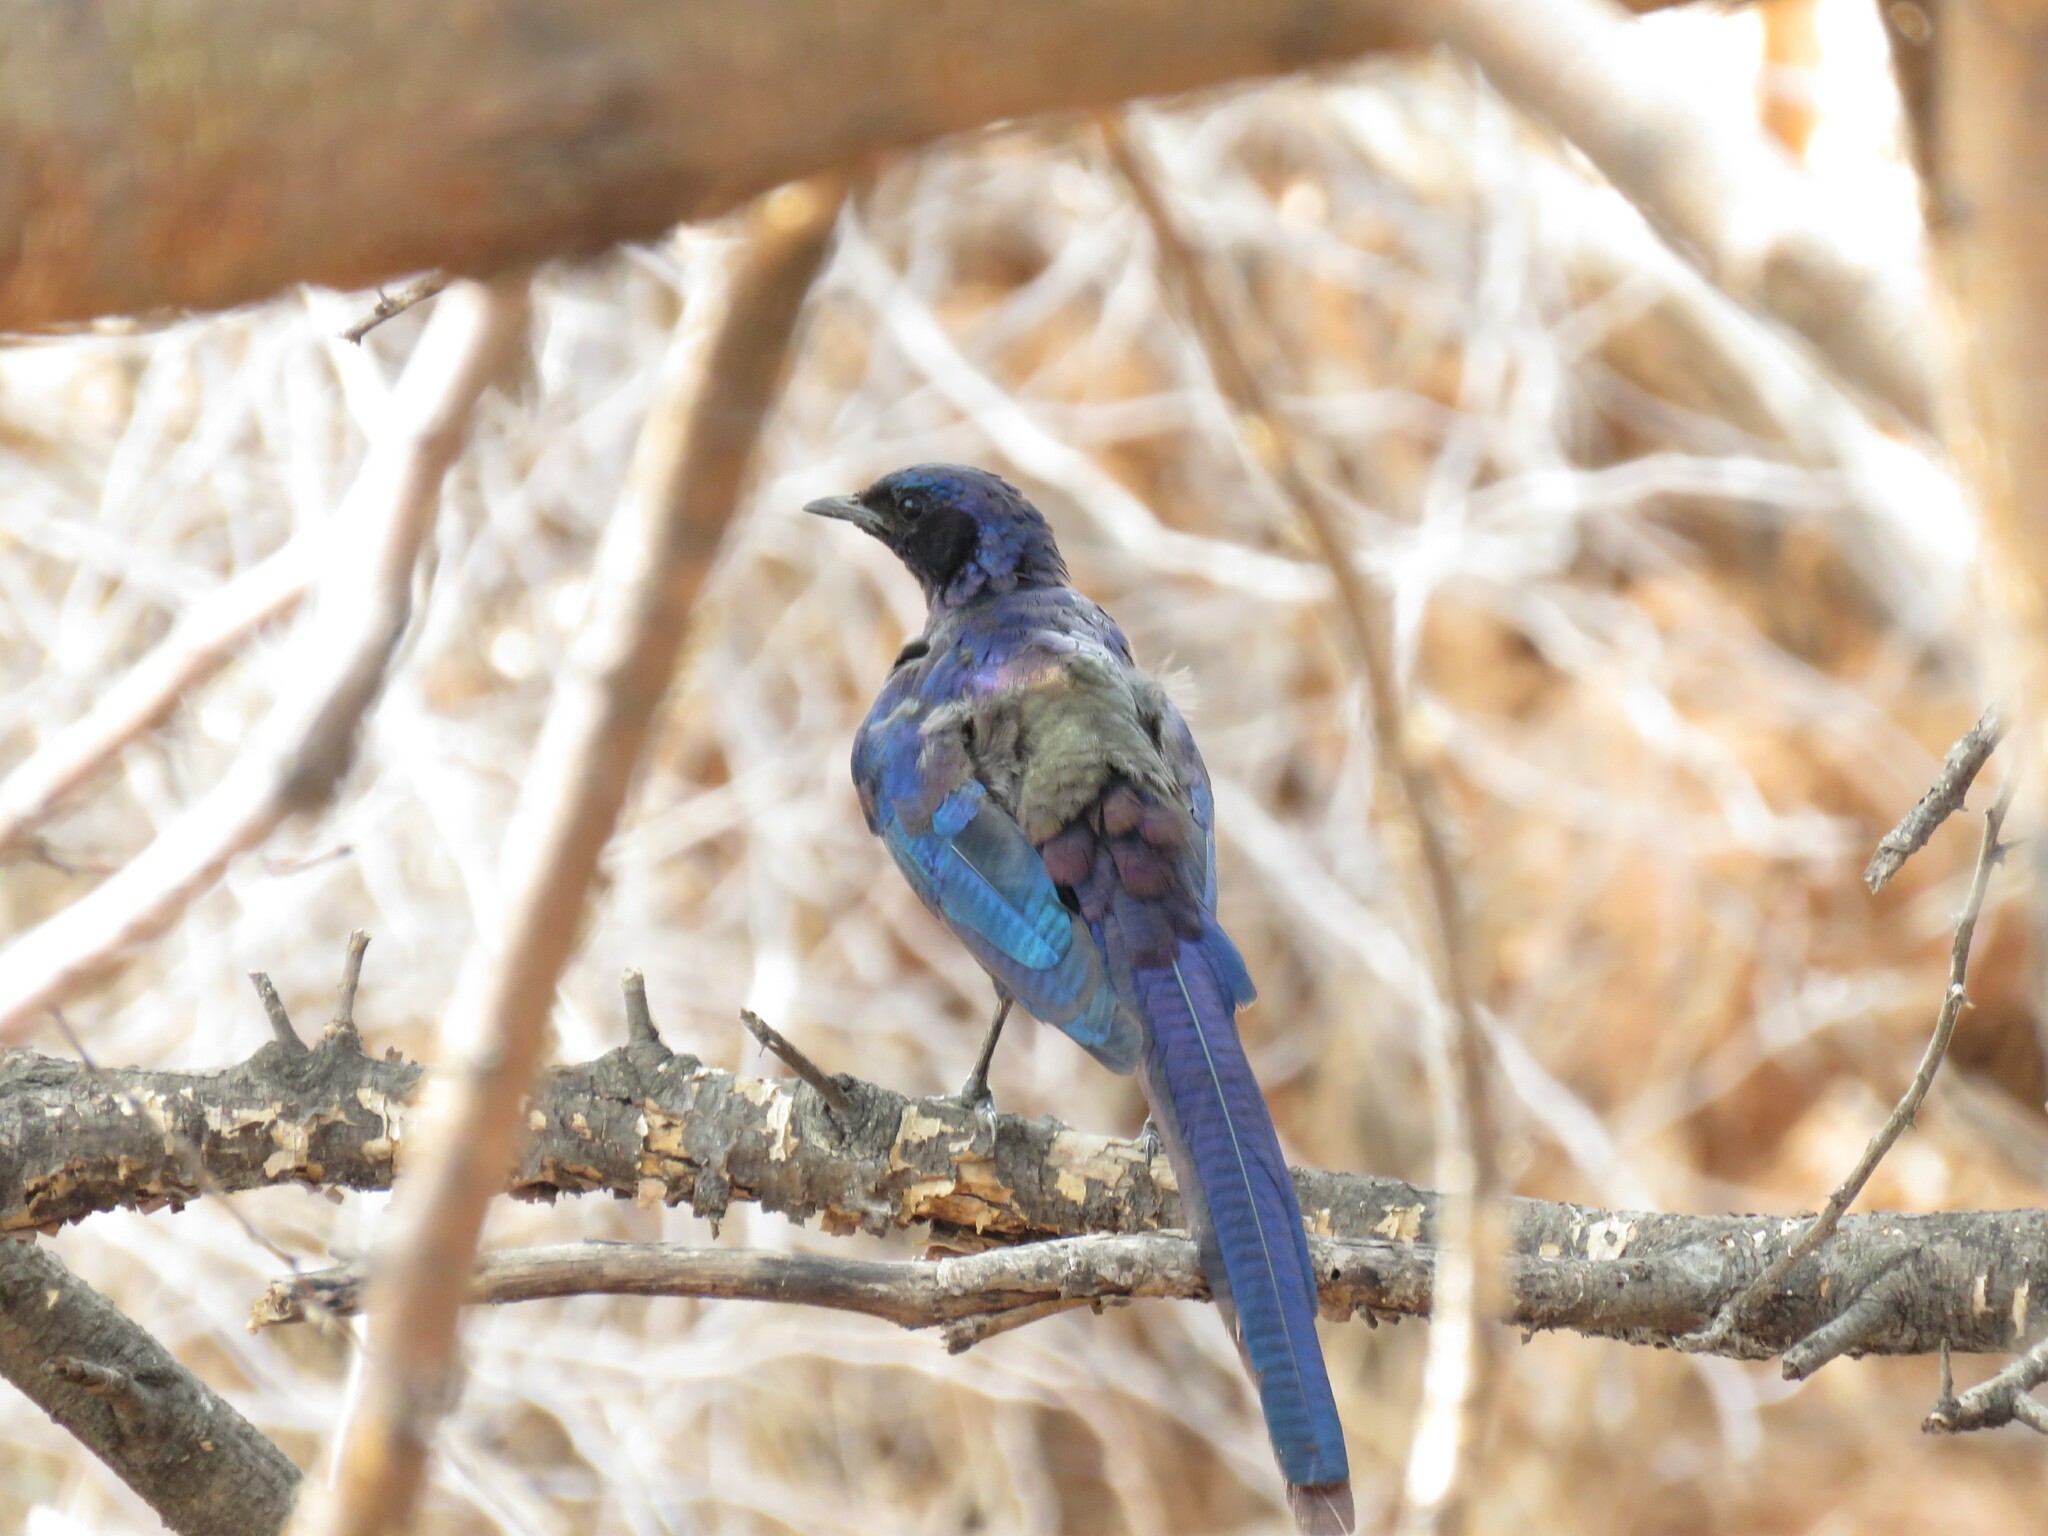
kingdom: Animalia
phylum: Chordata
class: Aves
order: Passeriformes
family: Sturnidae
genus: Lamprotornis
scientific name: Lamprotornis mevesii
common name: Meves's starling
